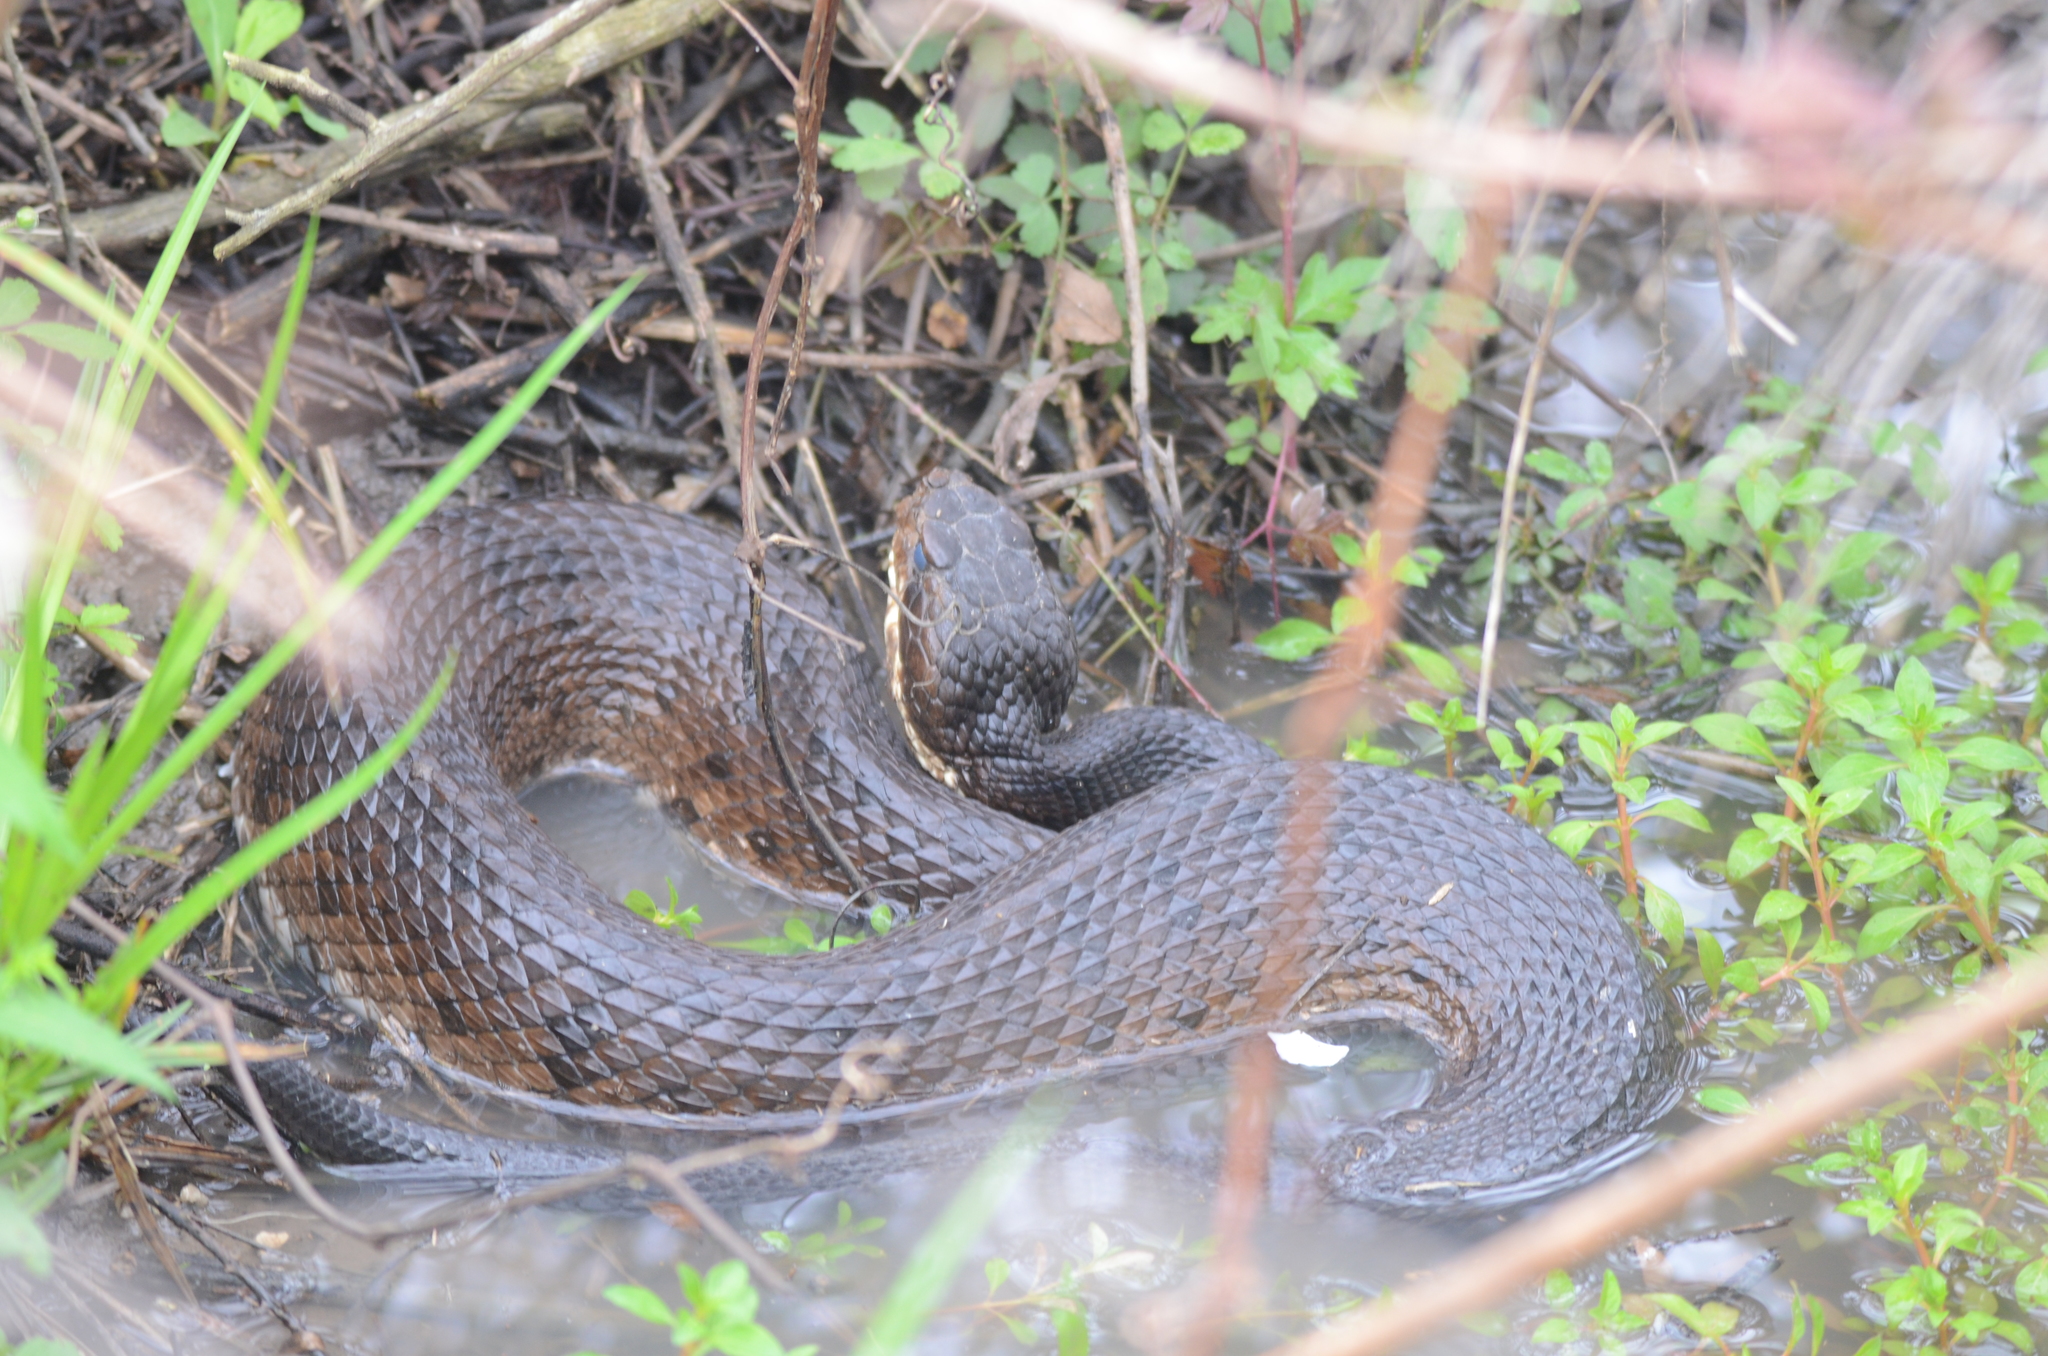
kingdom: Animalia
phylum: Chordata
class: Squamata
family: Viperidae
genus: Agkistrodon
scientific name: Agkistrodon piscivorus
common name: Cottonmouth
